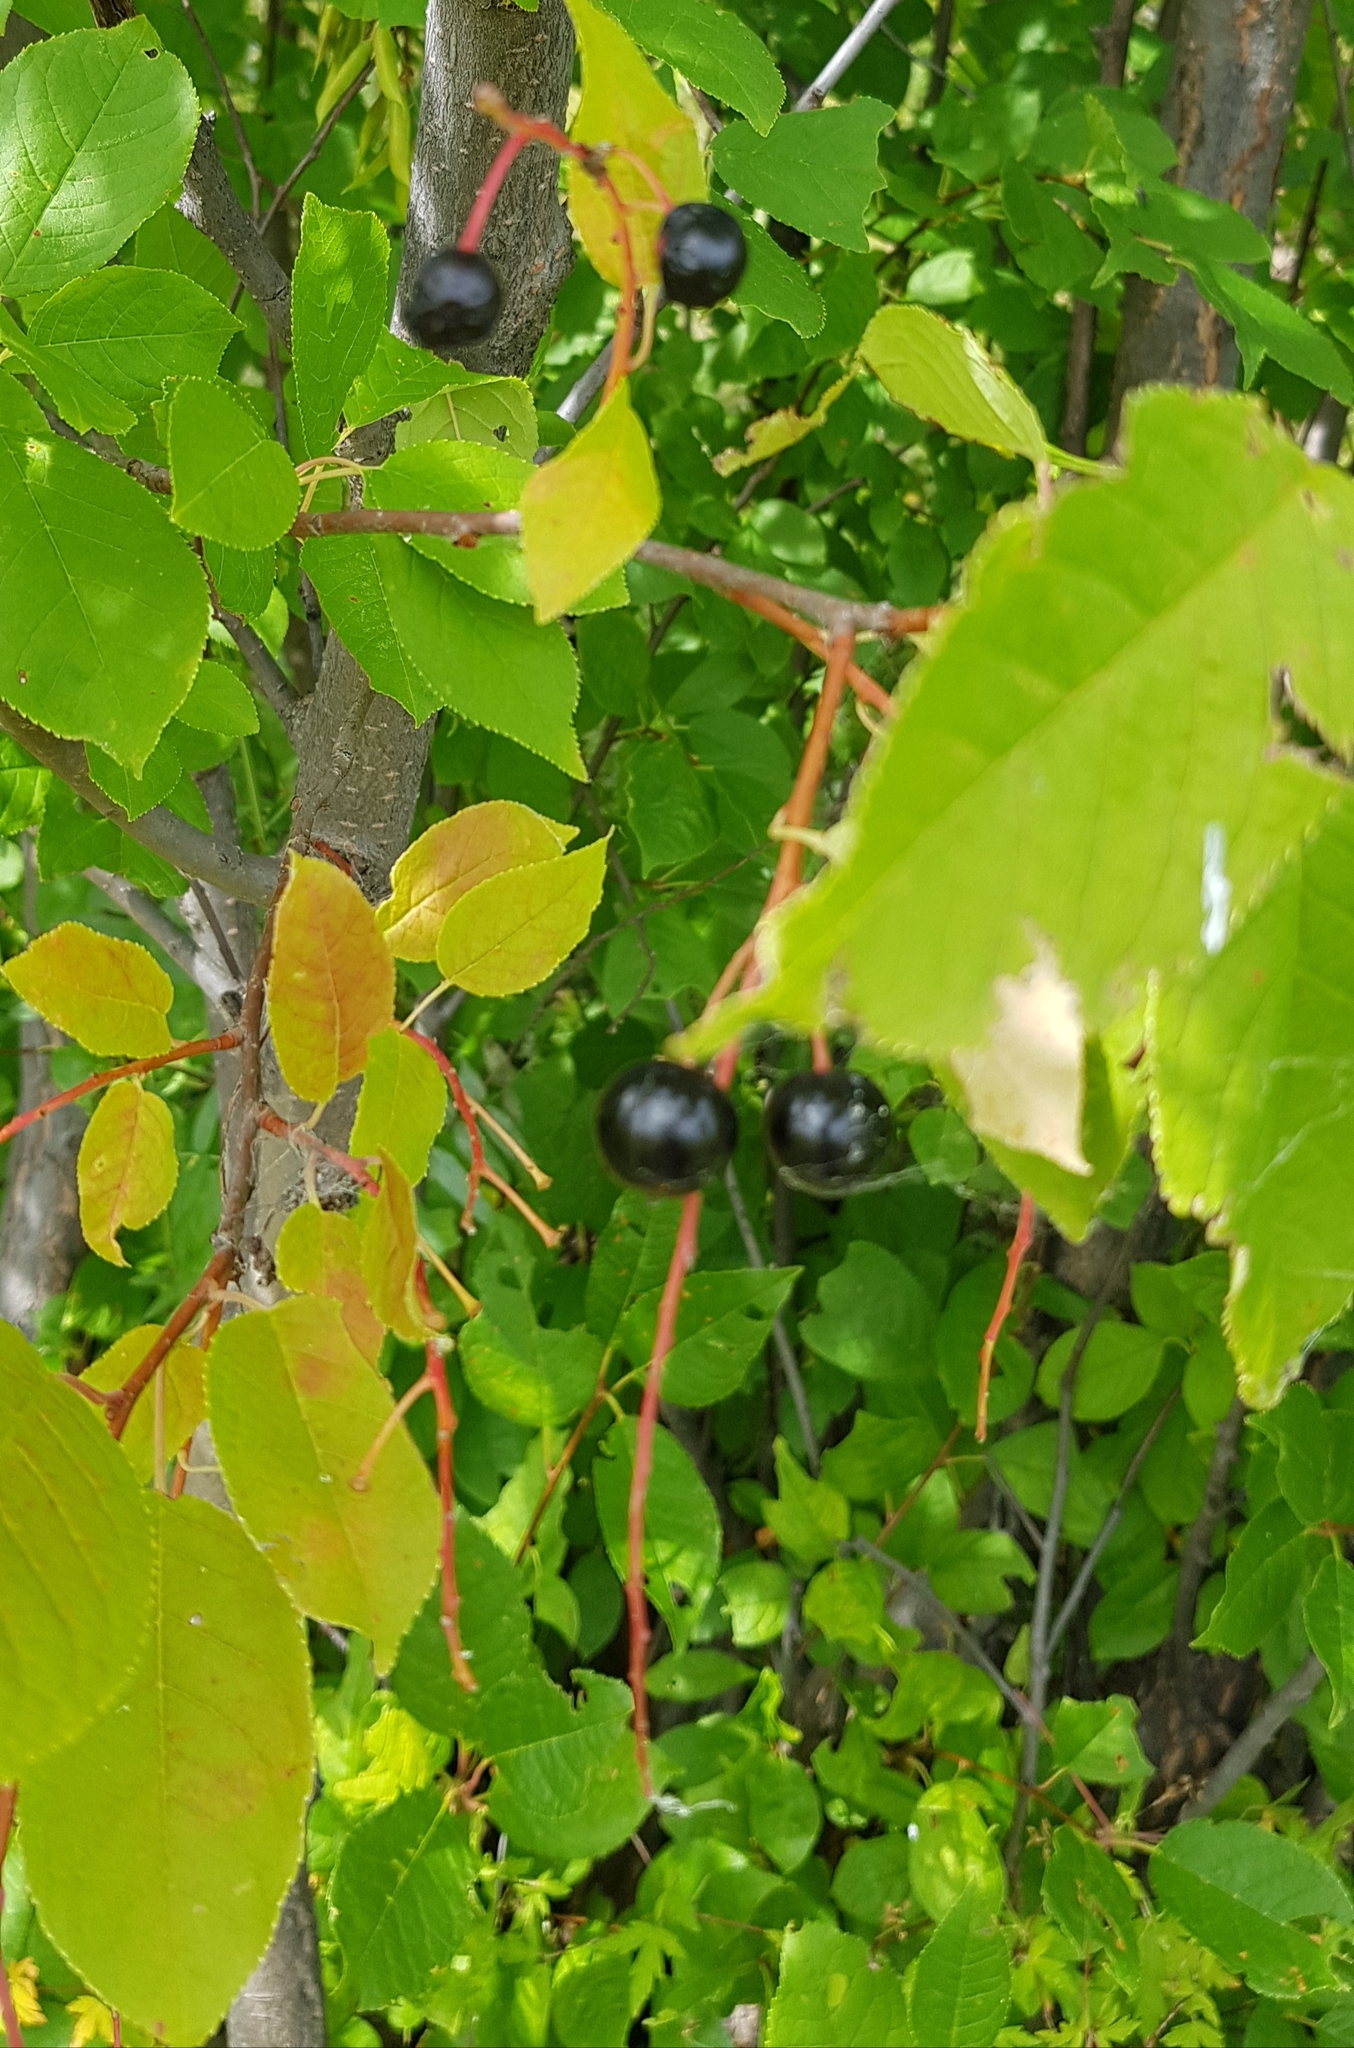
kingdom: Plantae
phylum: Tracheophyta
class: Magnoliopsida
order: Rosales
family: Rosaceae
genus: Prunus
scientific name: Prunus padus
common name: Bird cherry
